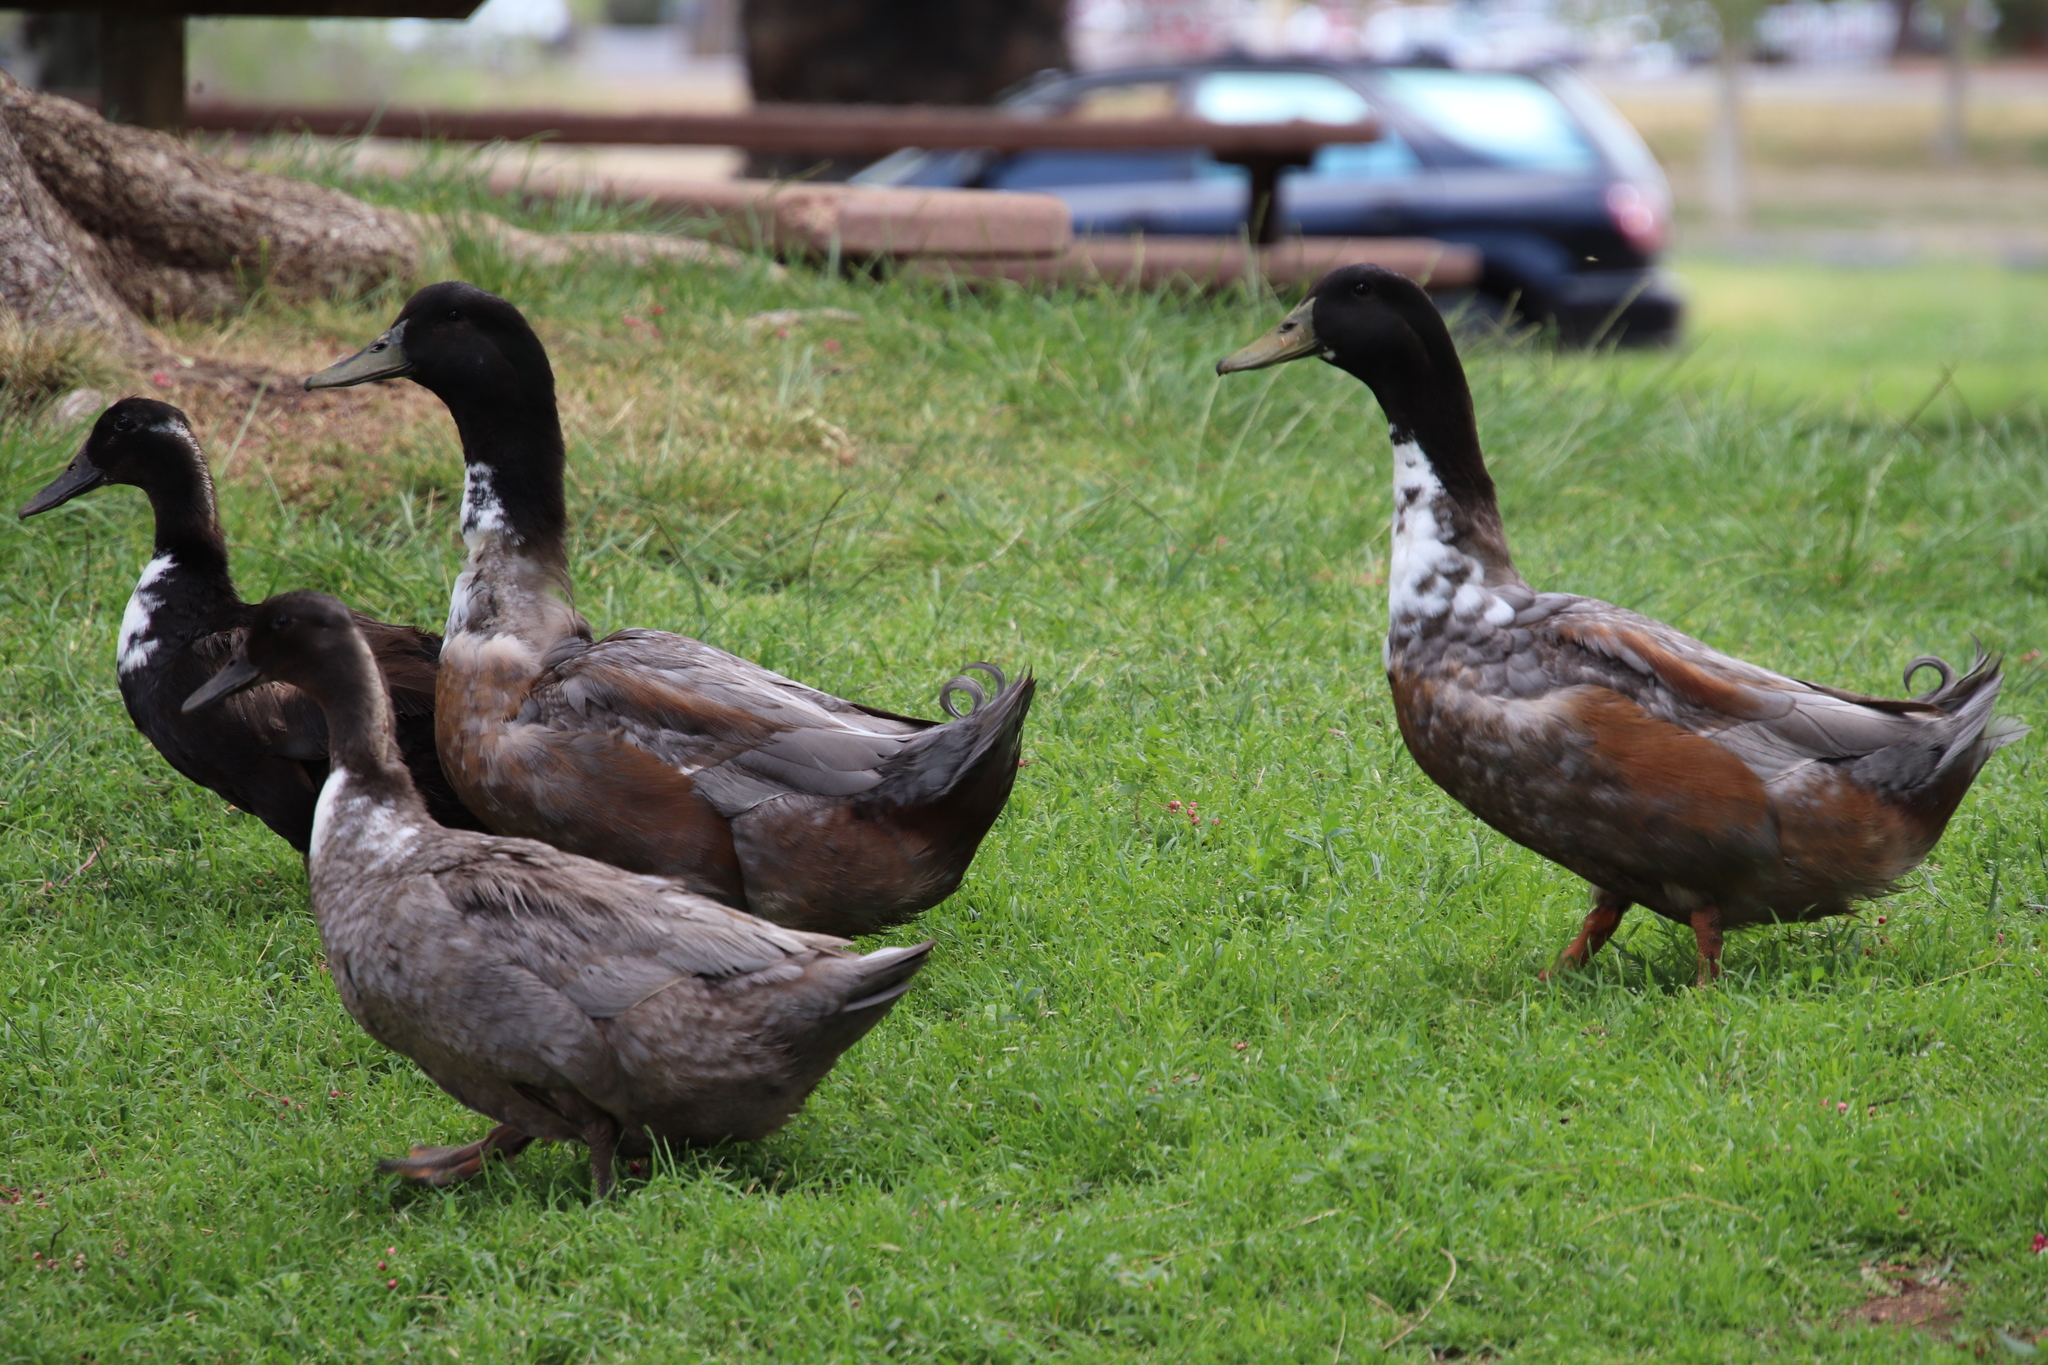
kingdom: Animalia
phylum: Chordata
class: Aves
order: Anseriformes
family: Anatidae
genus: Anas
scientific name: Anas platyrhynchos
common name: Mallard
